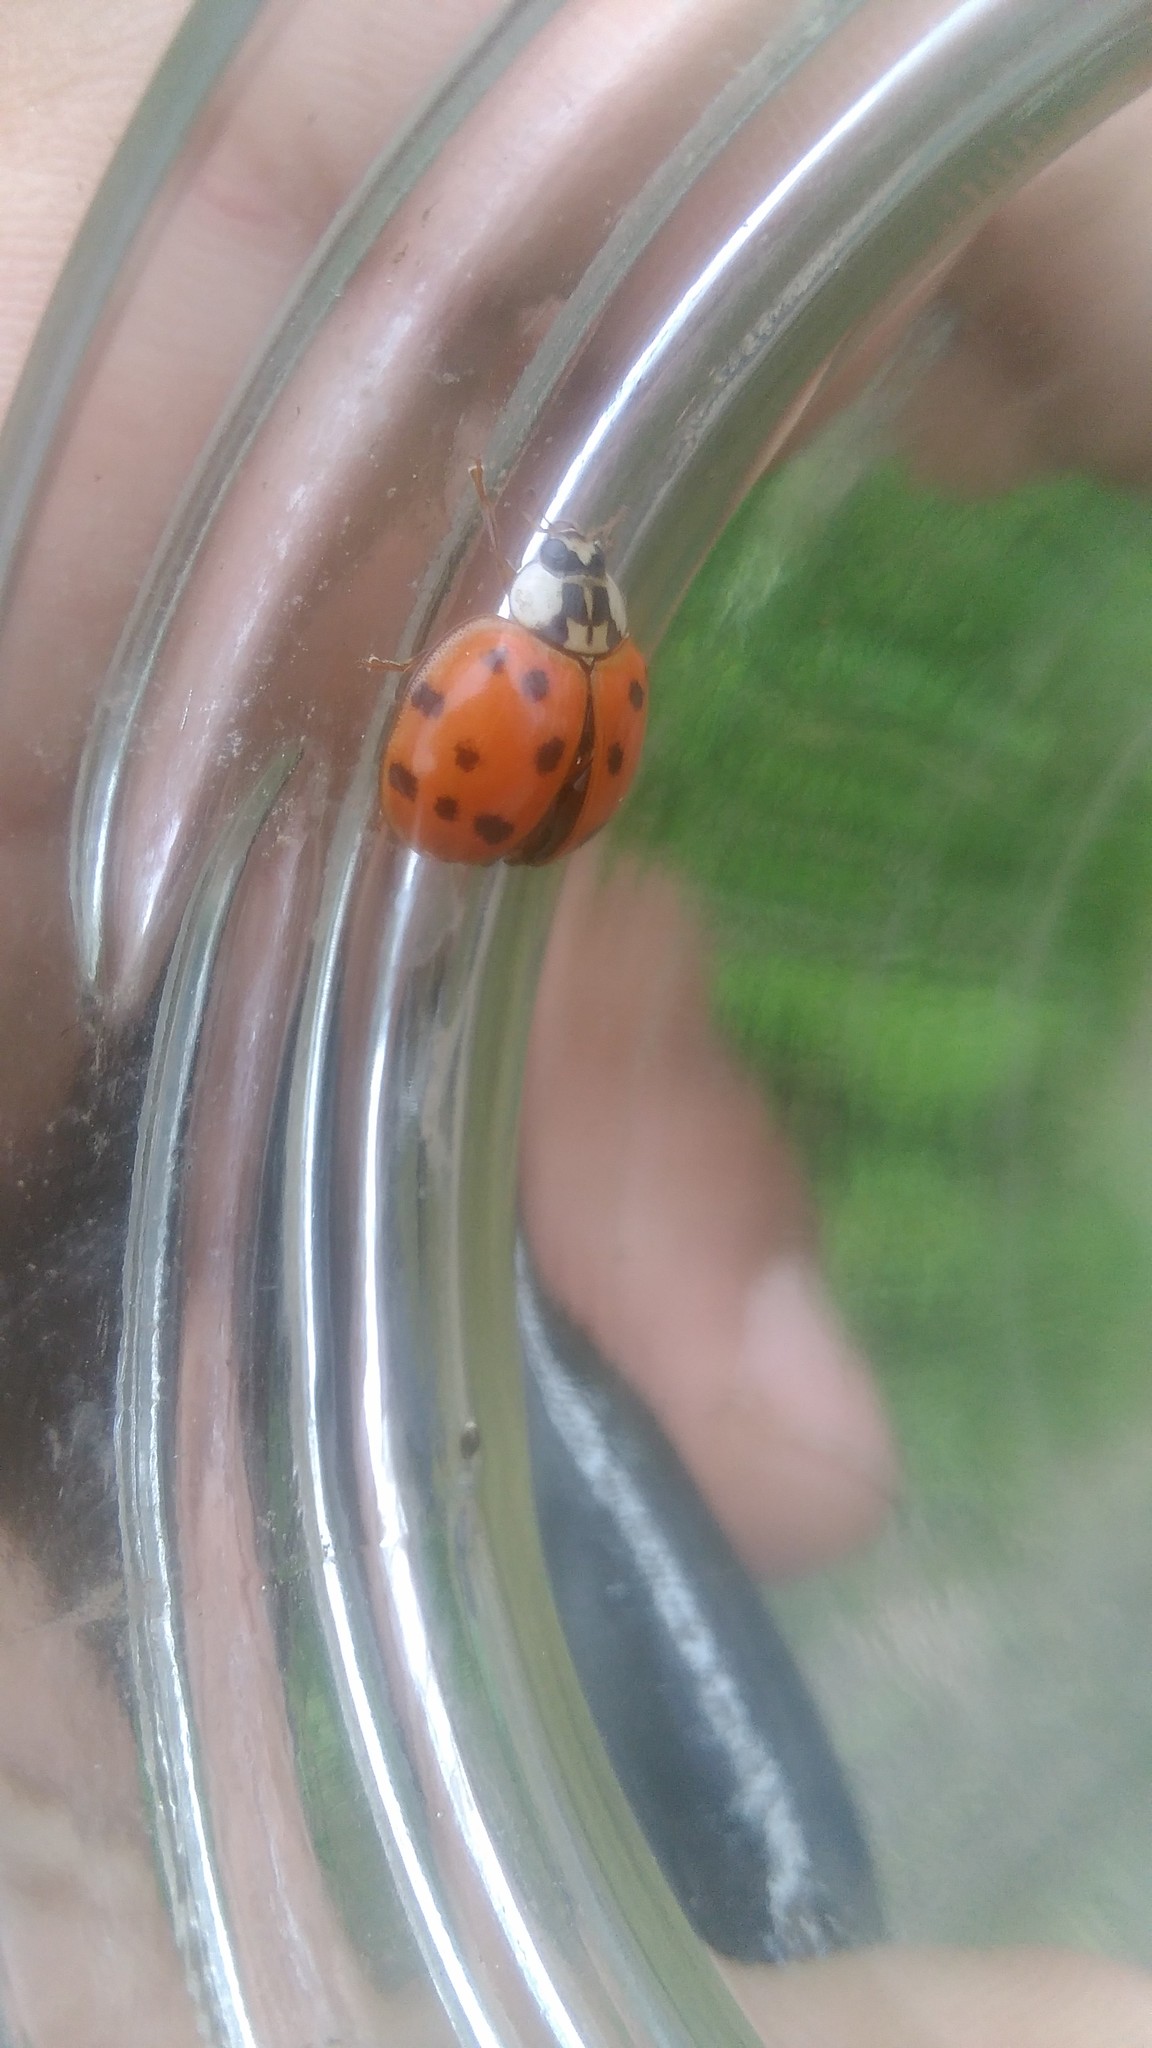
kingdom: Animalia
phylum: Arthropoda
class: Insecta
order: Coleoptera
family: Coccinellidae
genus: Harmonia
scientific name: Harmonia axyridis
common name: Harlequin ladybird
